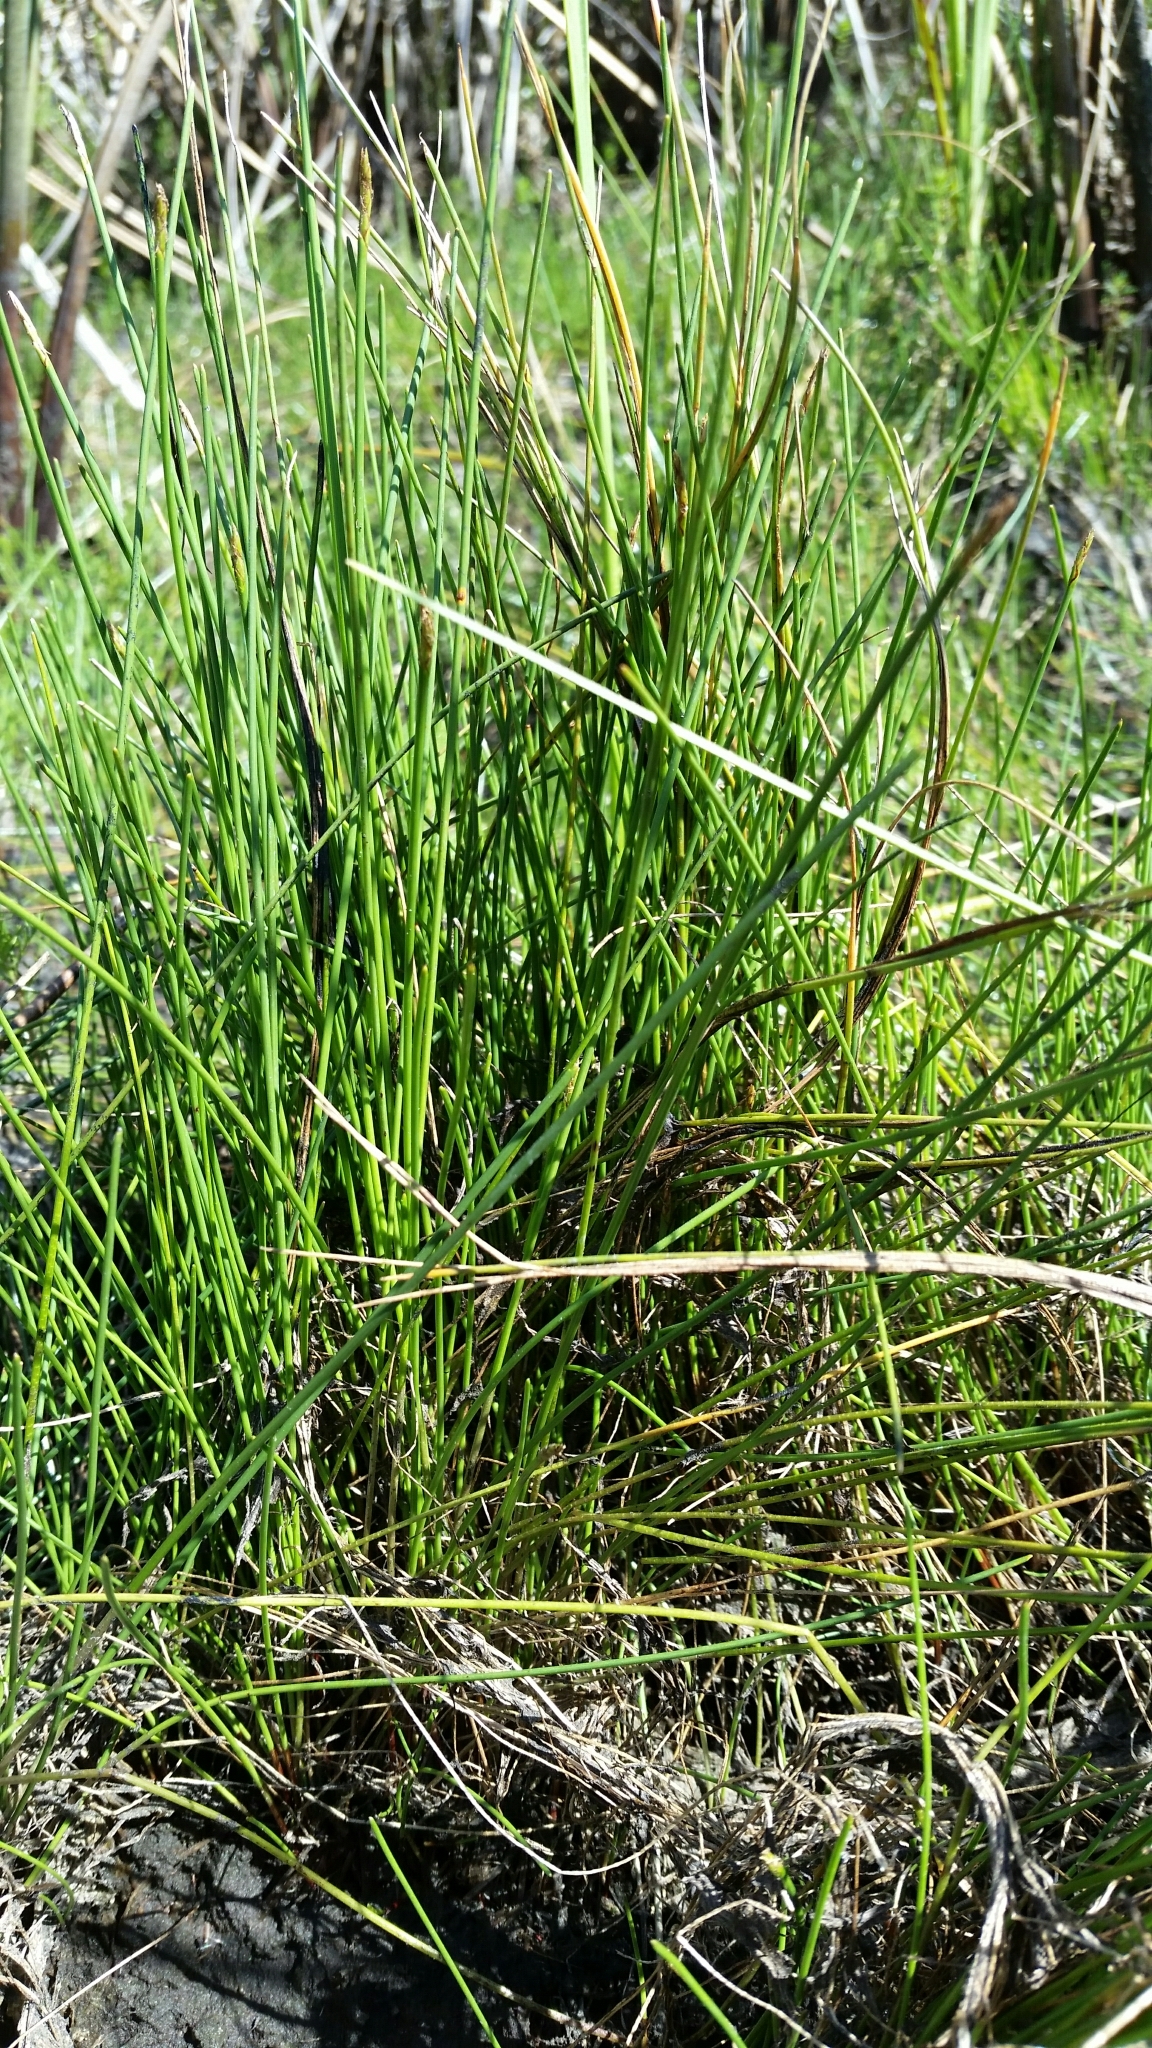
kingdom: Plantae
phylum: Tracheophyta
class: Liliopsida
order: Poales
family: Cyperaceae
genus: Eleocharis
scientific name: Eleocharis elongata
